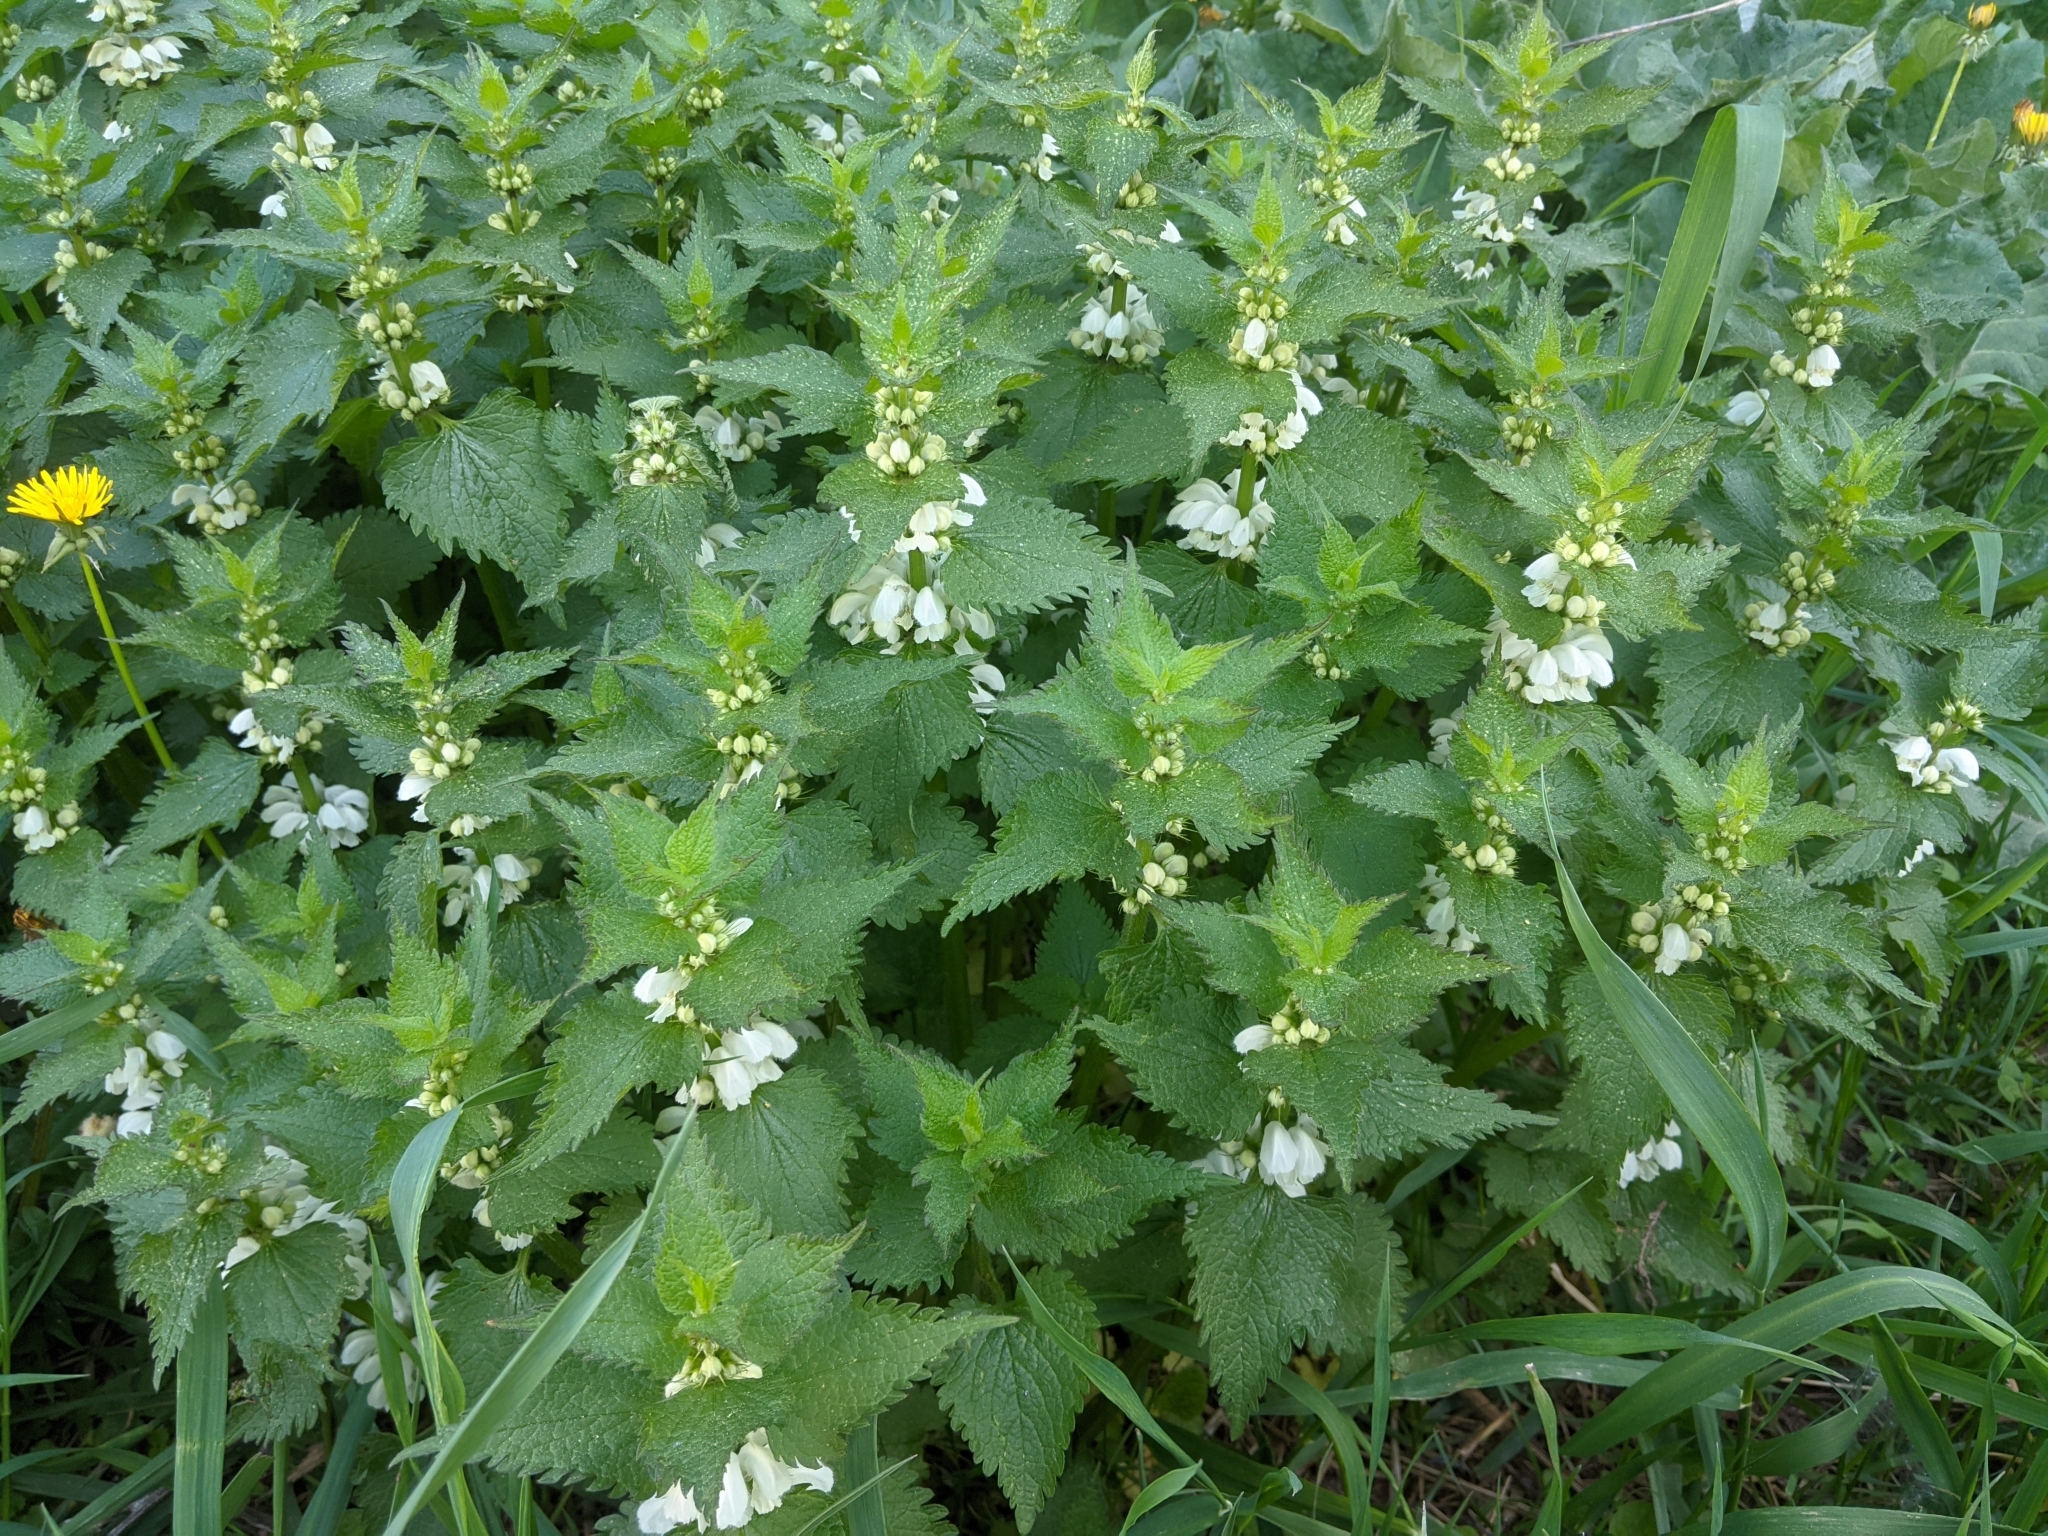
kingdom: Plantae
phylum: Tracheophyta
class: Magnoliopsida
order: Lamiales
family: Lamiaceae
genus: Lamium
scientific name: Lamium album
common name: White dead-nettle
